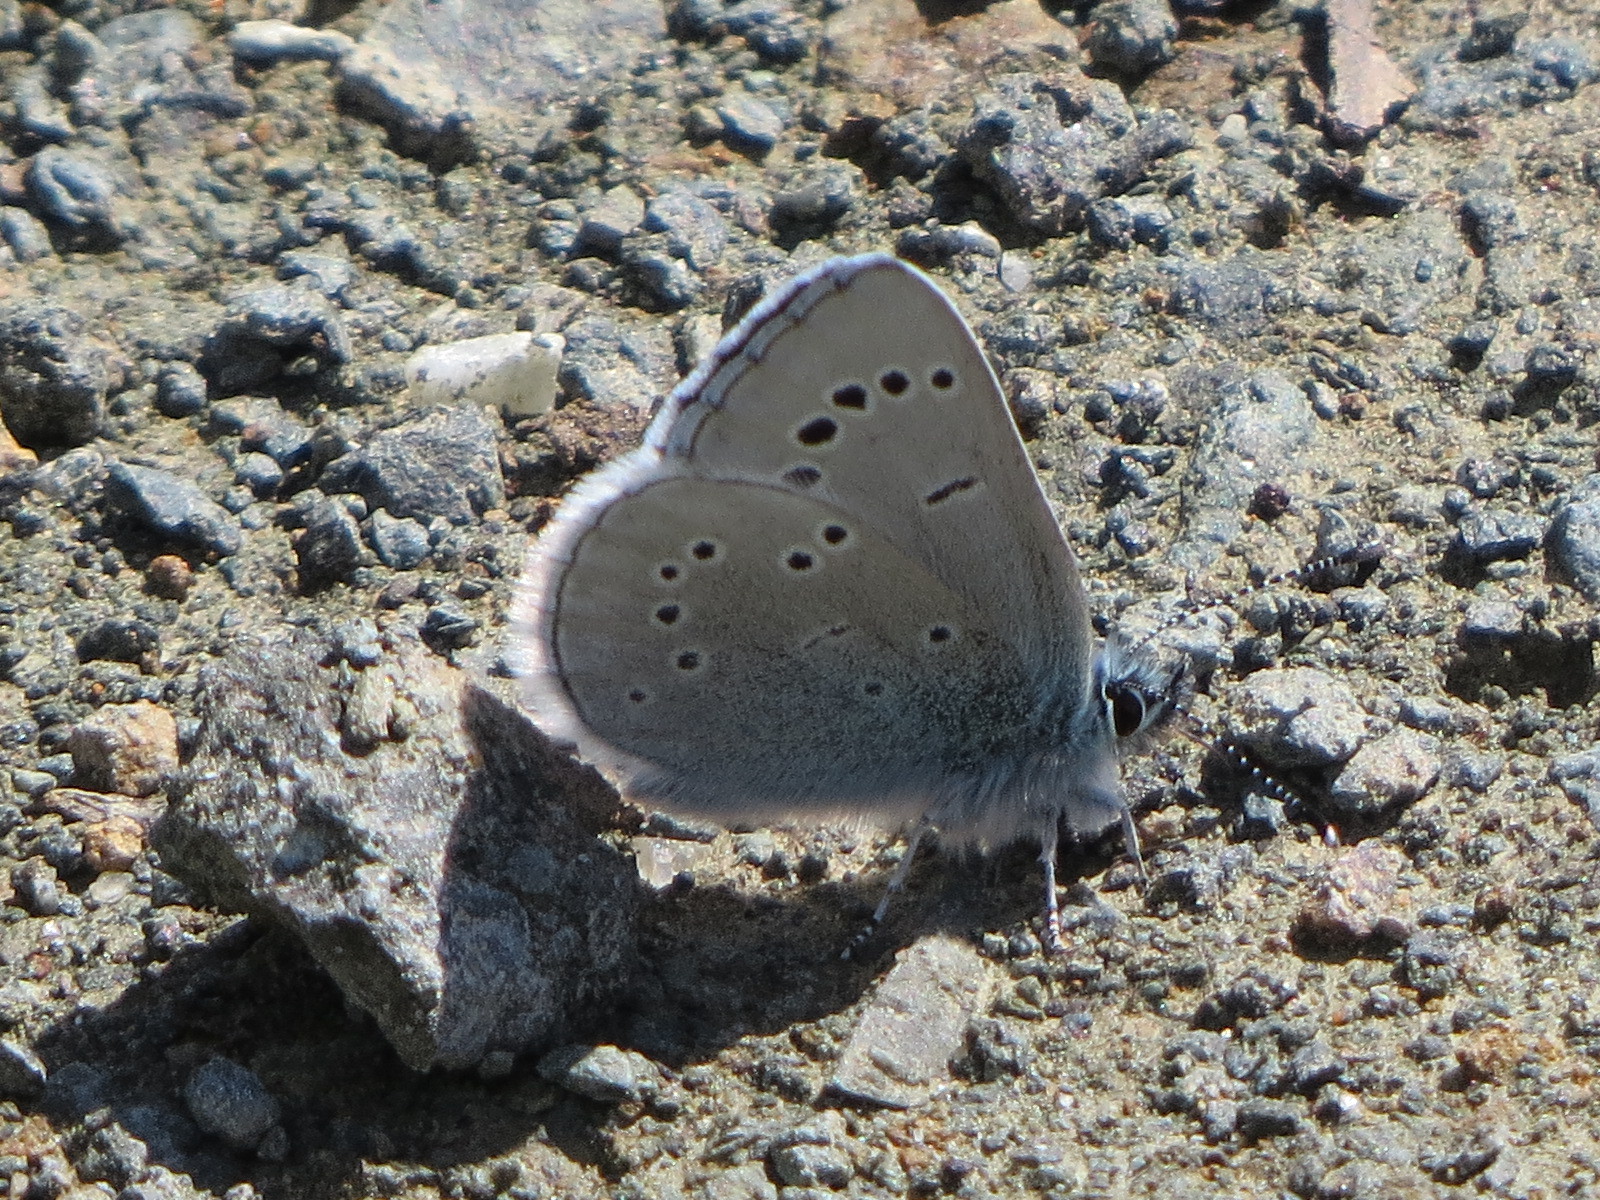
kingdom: Animalia
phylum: Arthropoda
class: Insecta
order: Lepidoptera
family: Lycaenidae
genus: Glaucopsyche
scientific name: Glaucopsyche lygdamus
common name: Silvery blue
